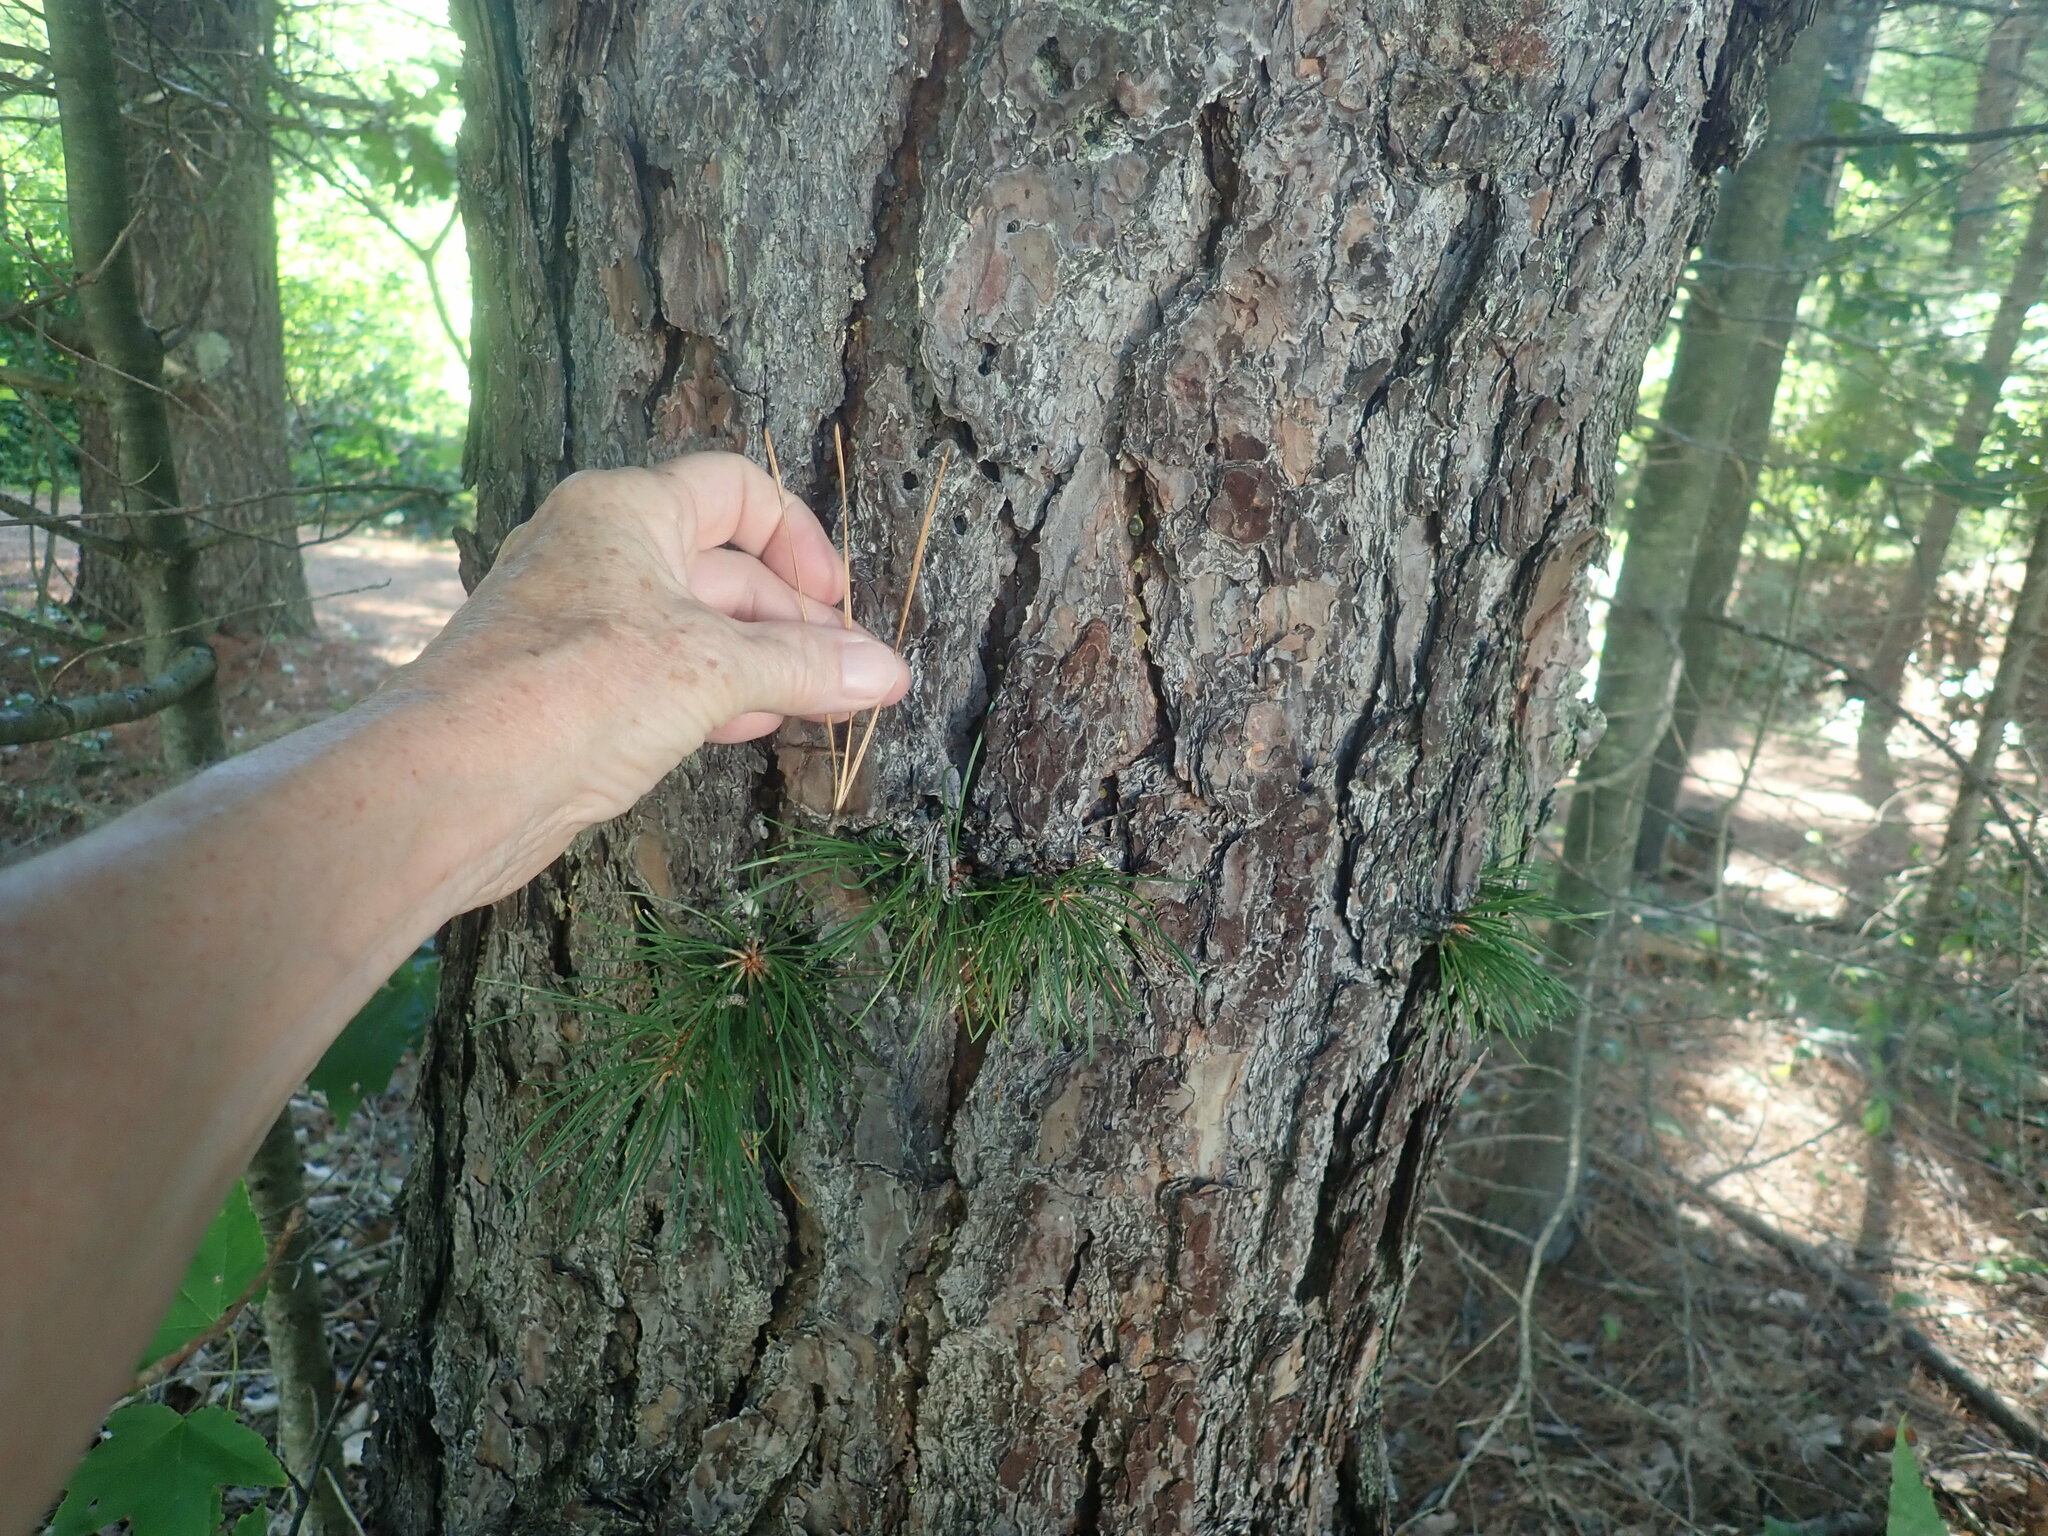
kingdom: Plantae
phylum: Tracheophyta
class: Pinopsida
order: Pinales
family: Pinaceae
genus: Pinus
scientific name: Pinus rigida
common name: Pitch pine
